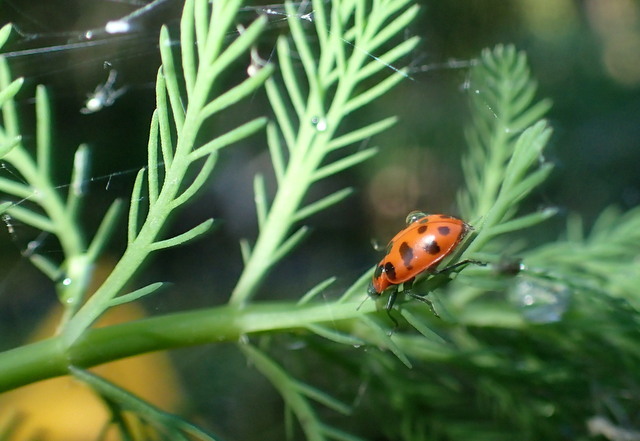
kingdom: Animalia
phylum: Arthropoda
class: Insecta
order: Coleoptera
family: Coccinellidae
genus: Coleomegilla
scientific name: Coleomegilla maculata
